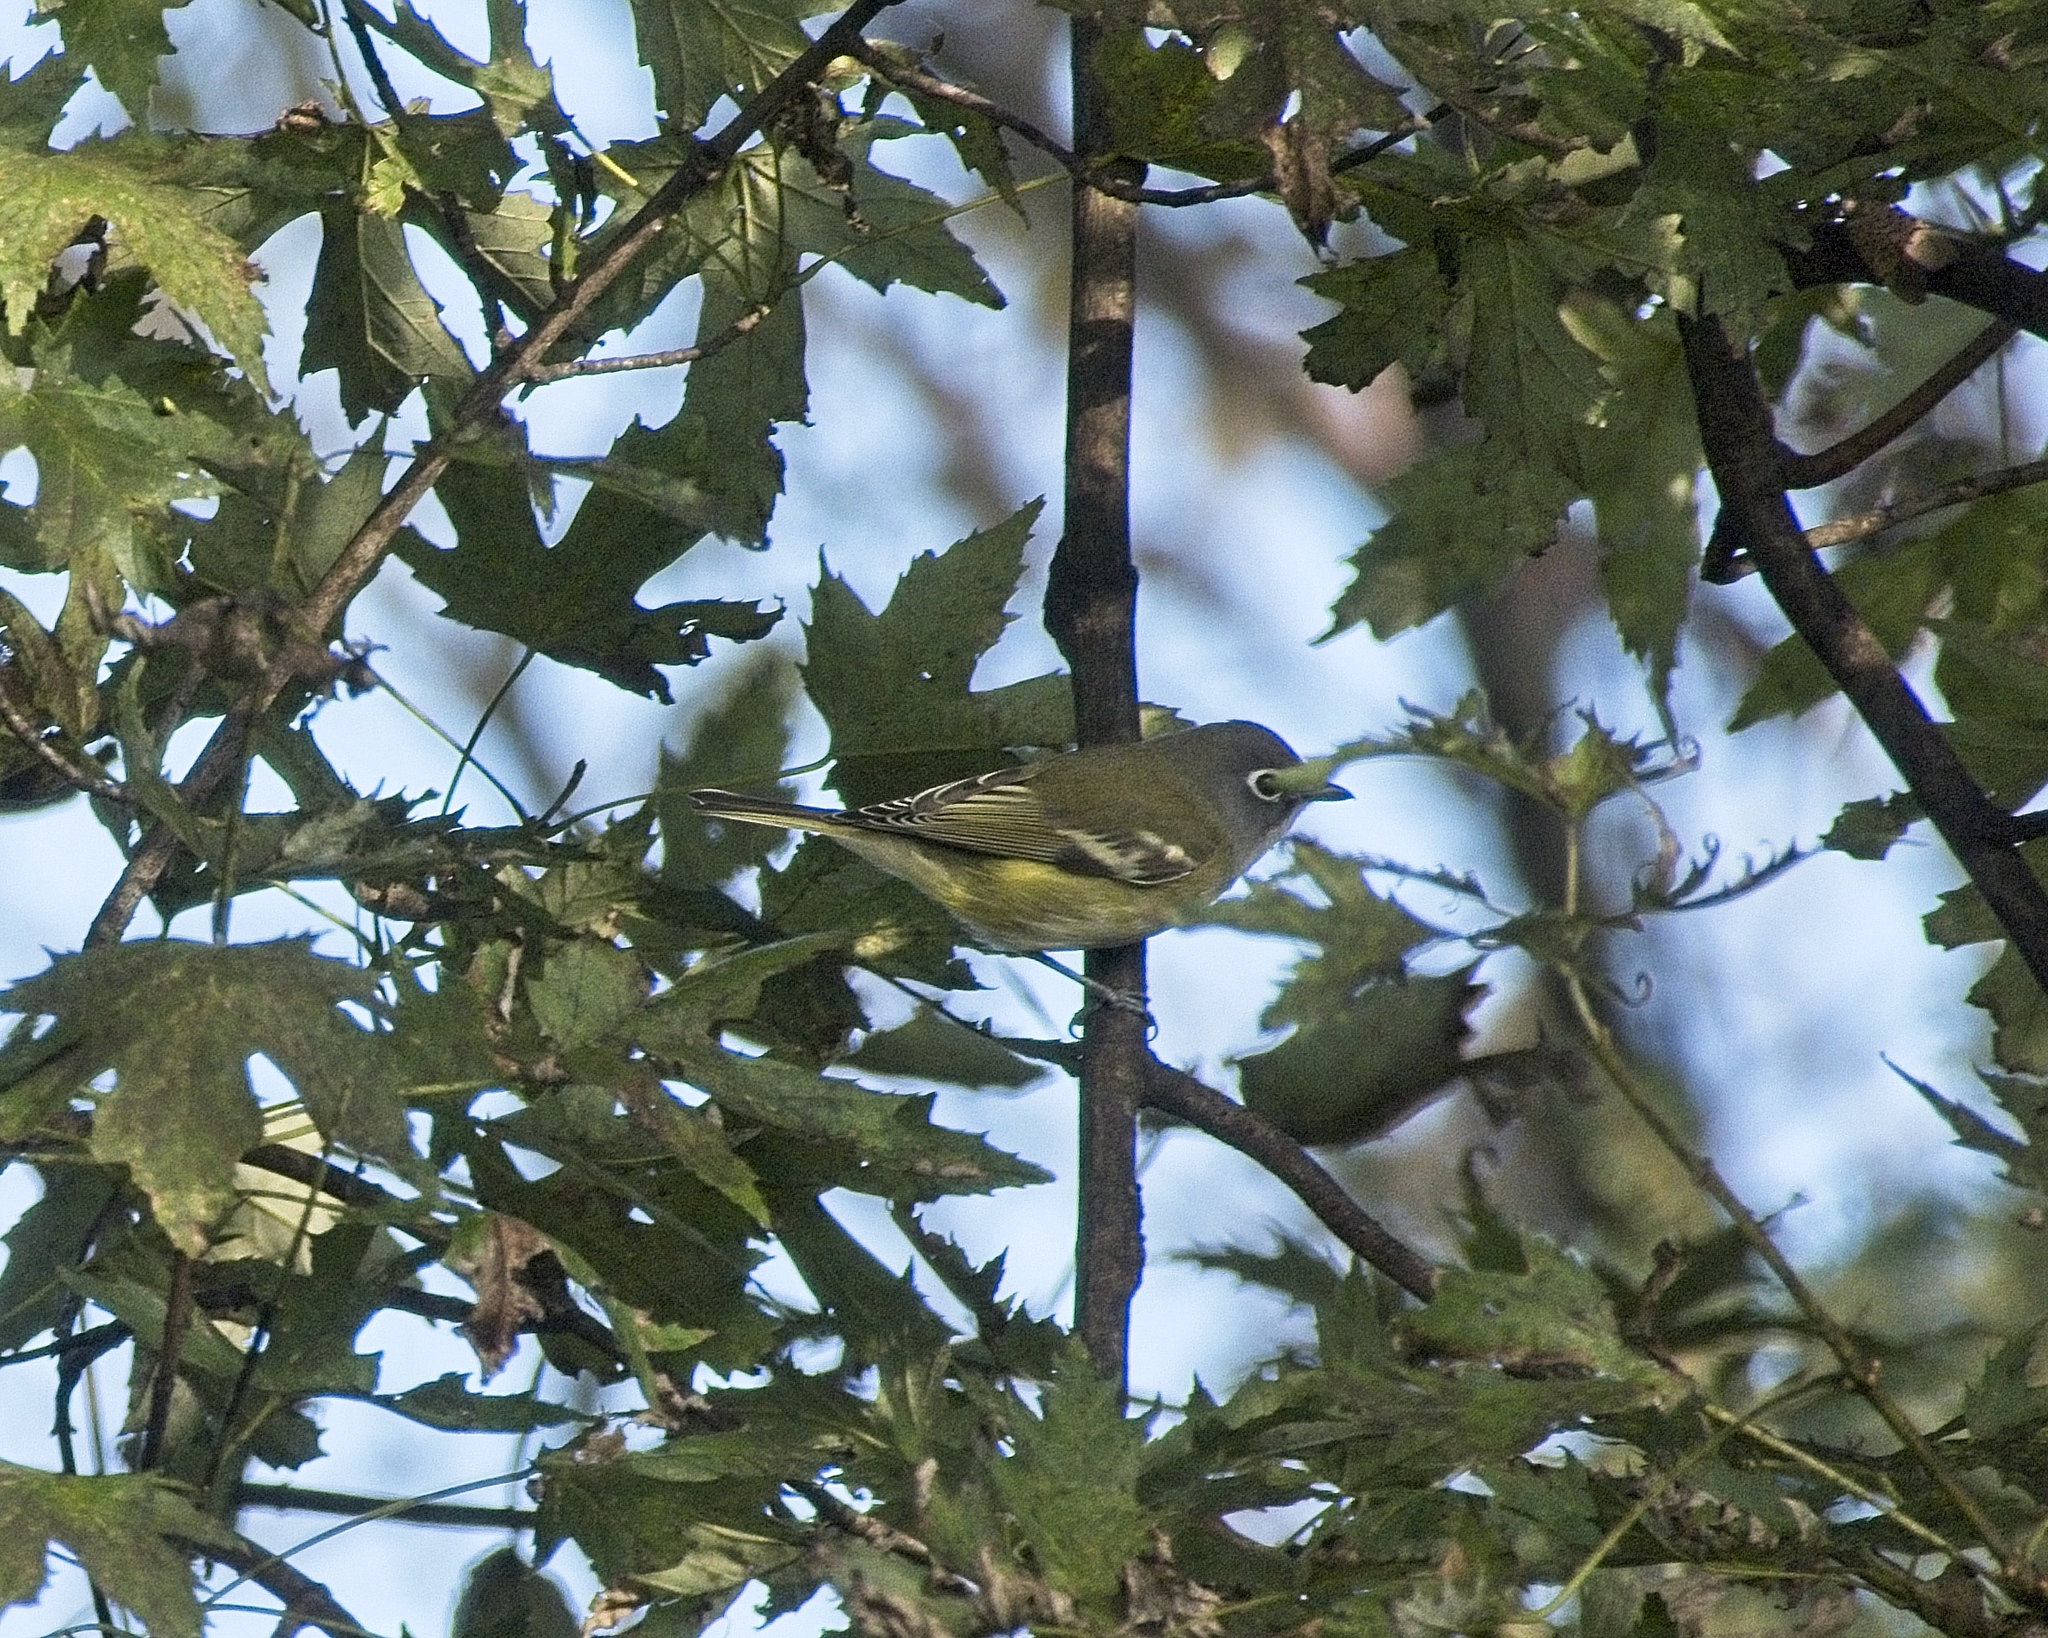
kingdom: Animalia
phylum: Chordata
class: Aves
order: Passeriformes
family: Vireonidae
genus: Vireo
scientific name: Vireo solitarius
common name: Blue-headed vireo
